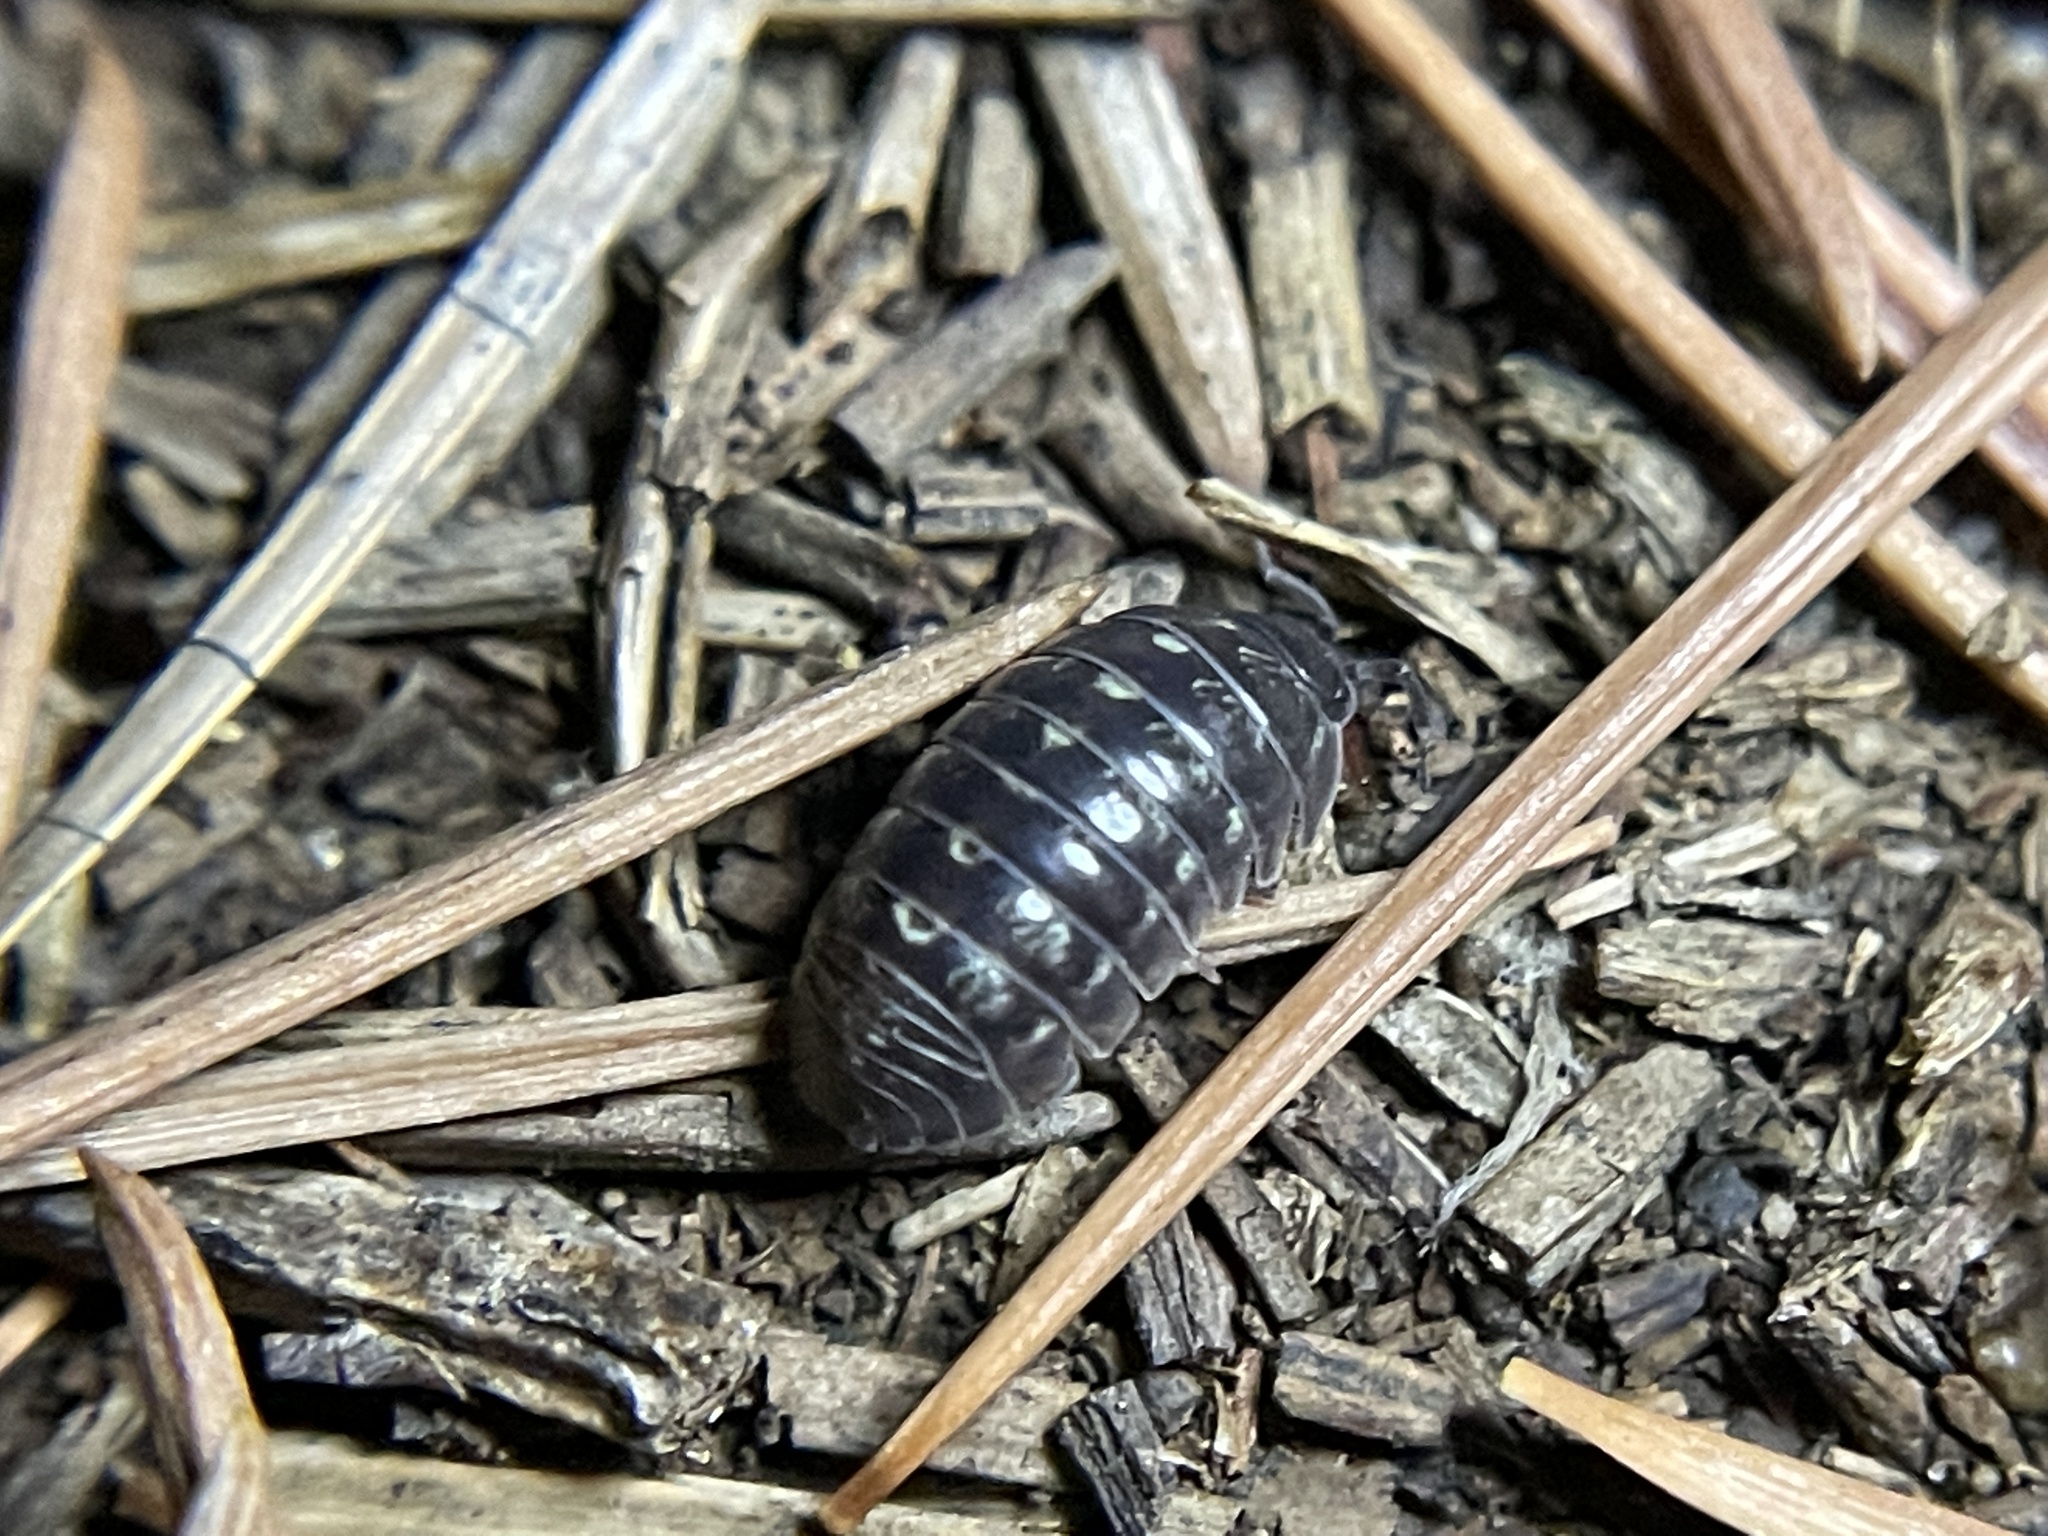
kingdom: Animalia
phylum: Arthropoda
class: Malacostraca
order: Isopoda
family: Armadillidiidae
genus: Armadillidium
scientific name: Armadillidium vulgare
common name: Common pill woodlouse
